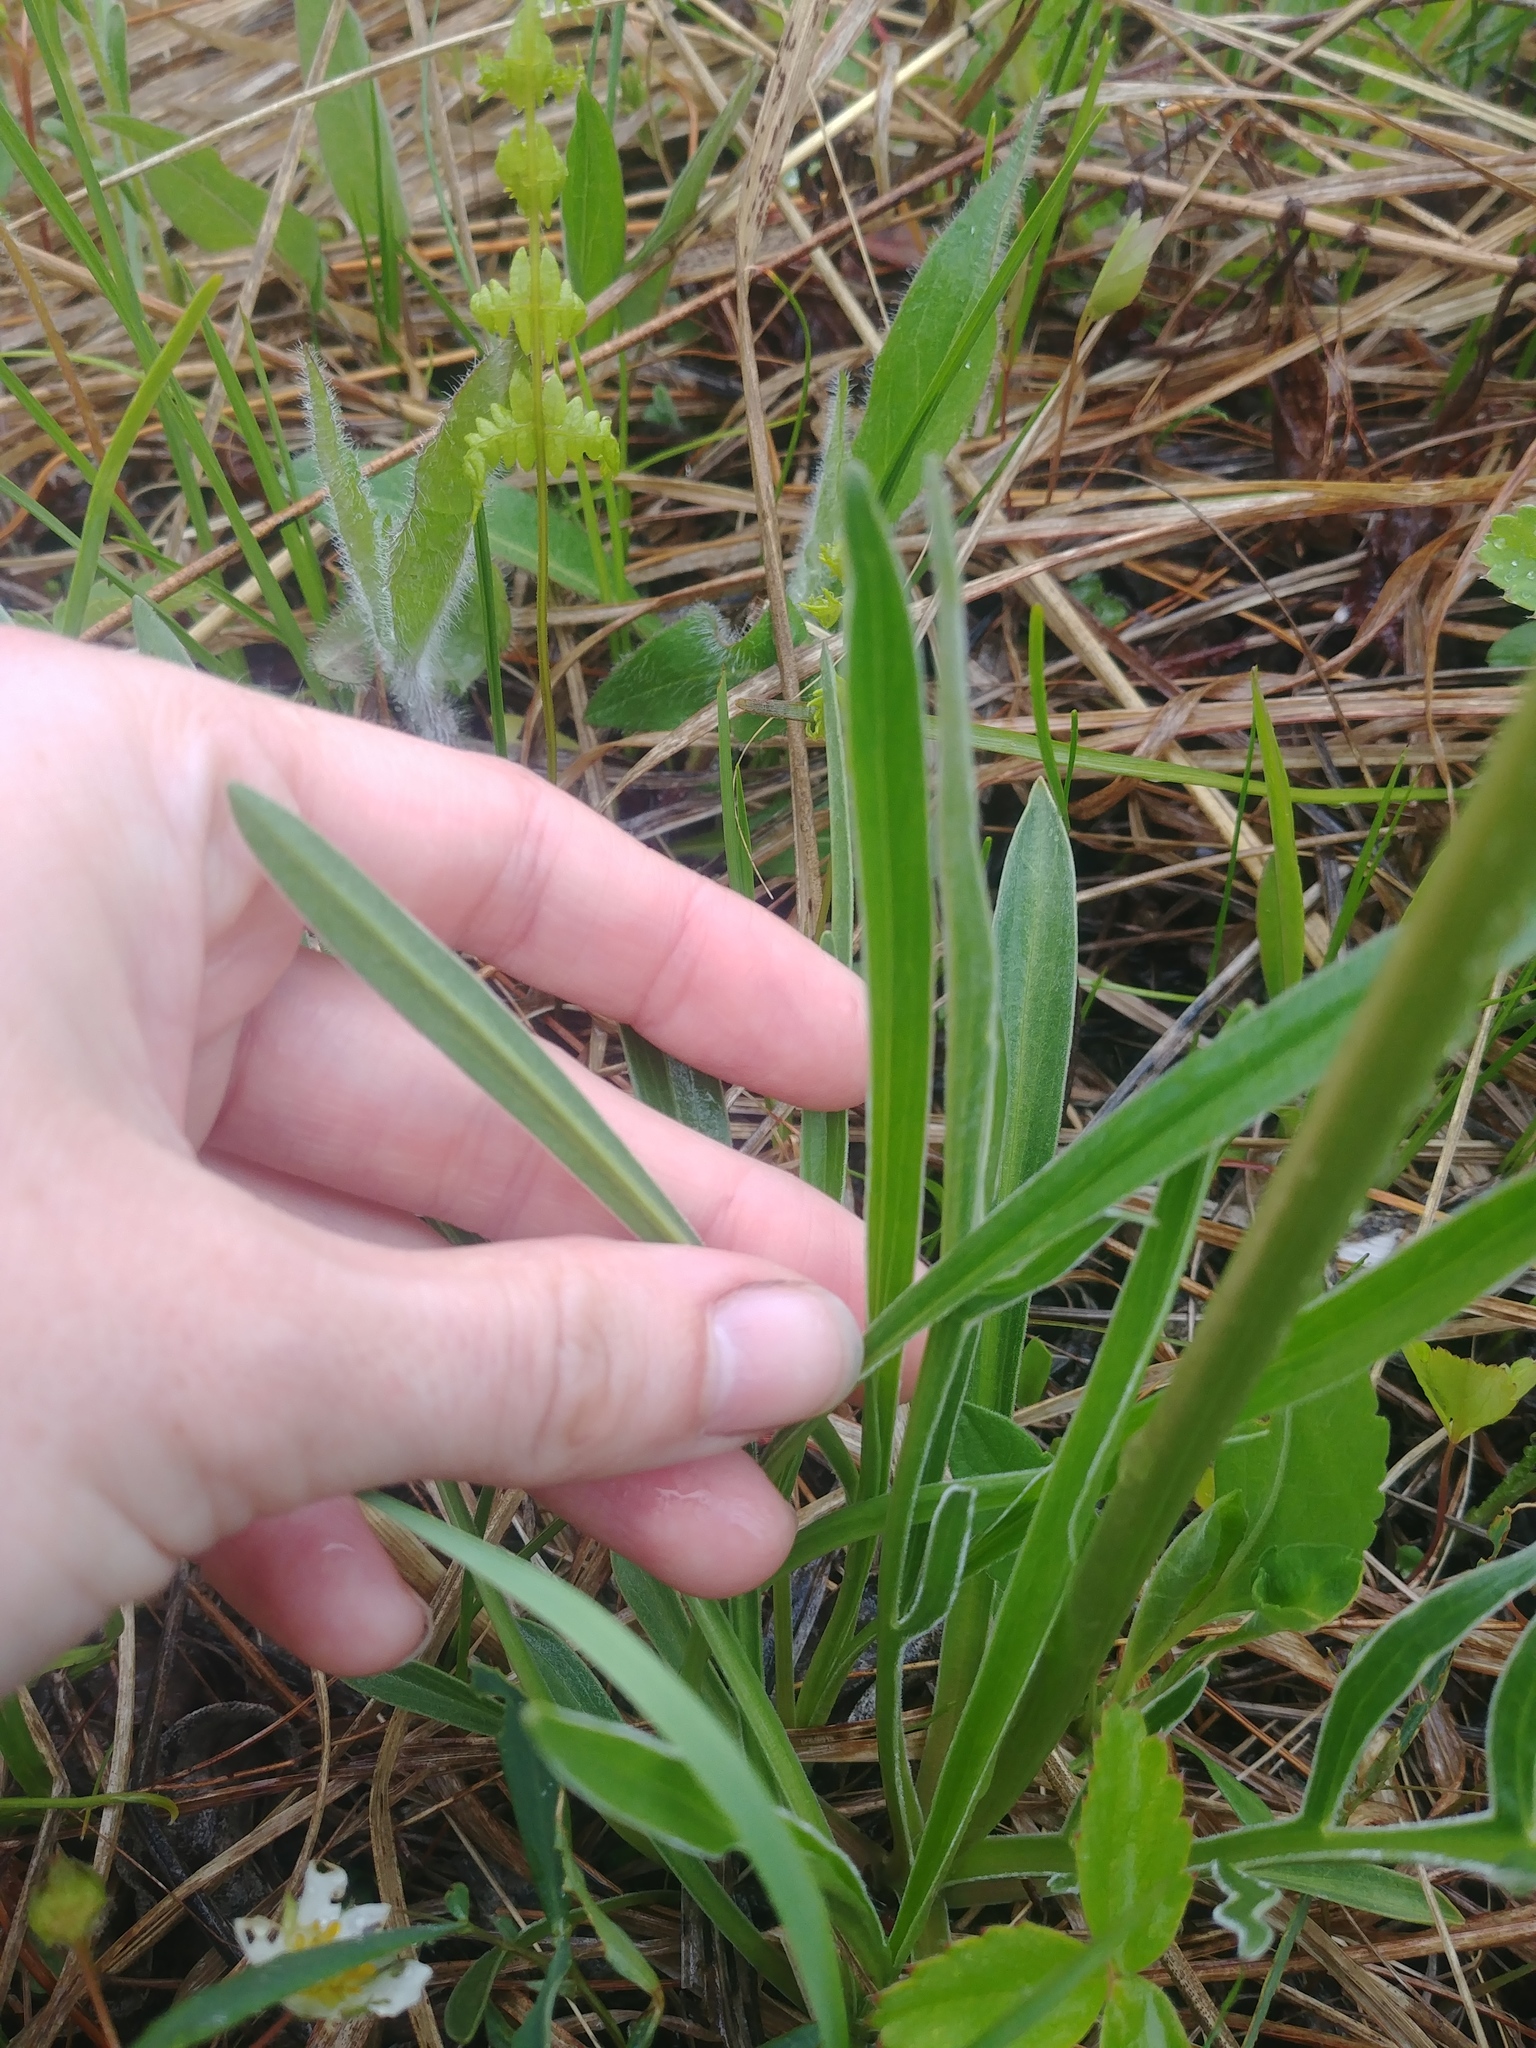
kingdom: Plantae
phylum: Tracheophyta
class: Magnoliopsida
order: Dipsacales
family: Caprifoliaceae
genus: Valeriana
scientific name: Valeriana edulis
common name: Taproot valerian
